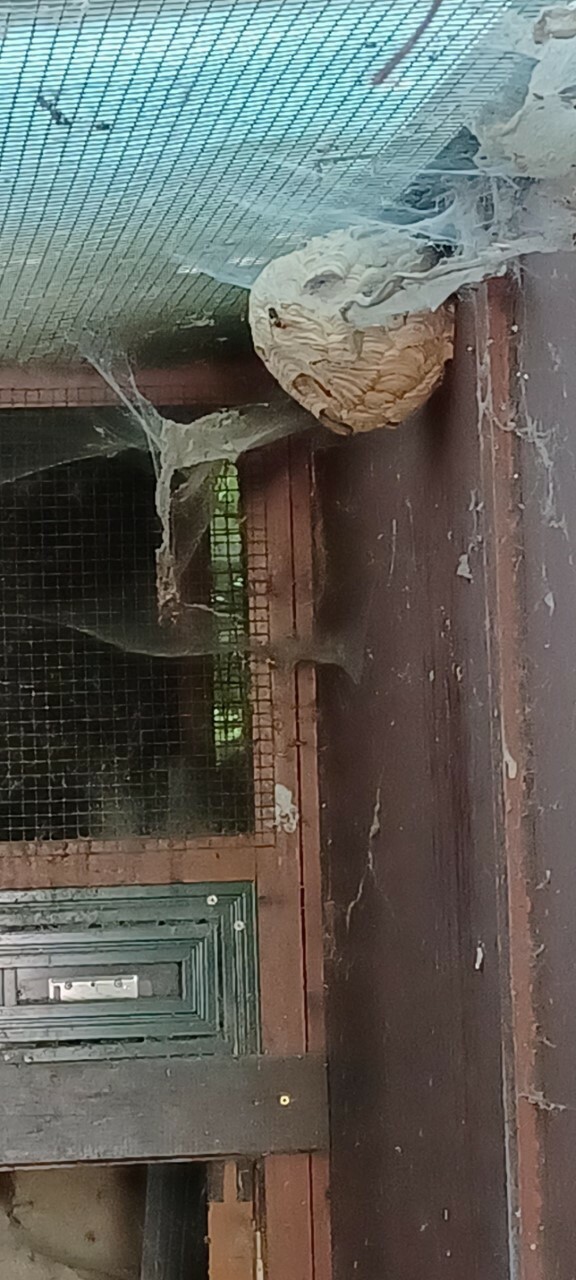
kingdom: Animalia
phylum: Arthropoda
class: Insecta
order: Hymenoptera
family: Vespidae
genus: Vespa
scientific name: Vespa velutina
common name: Asian hornet
